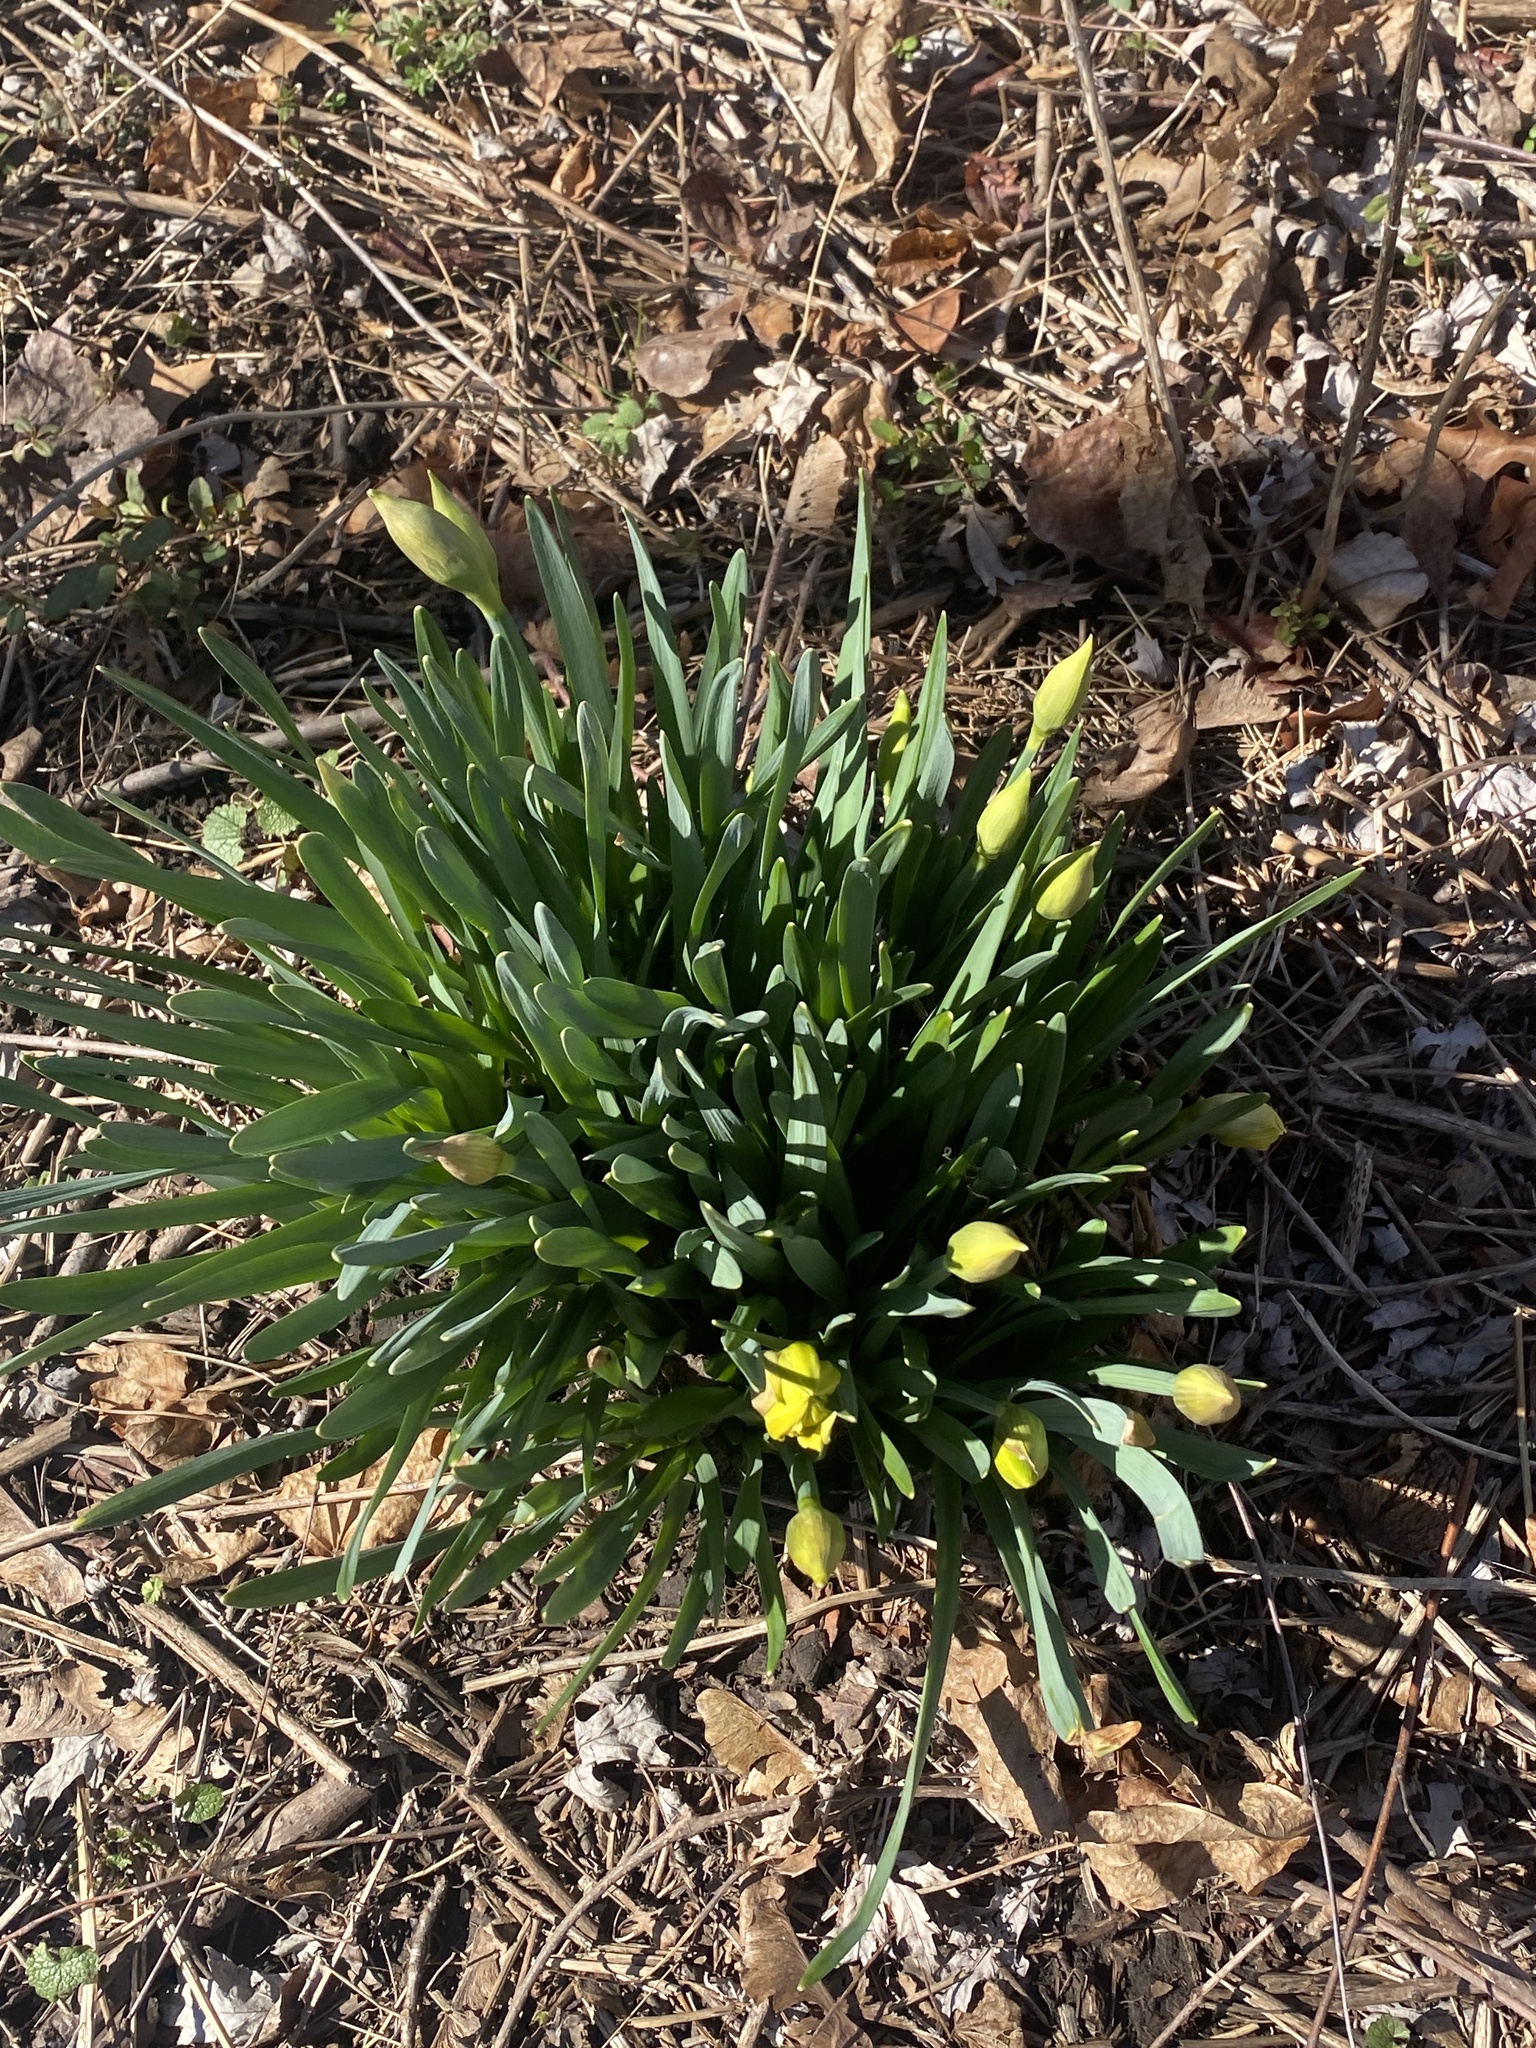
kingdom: Plantae
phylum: Tracheophyta
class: Liliopsida
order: Asparagales
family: Amaryllidaceae
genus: Narcissus
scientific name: Narcissus
